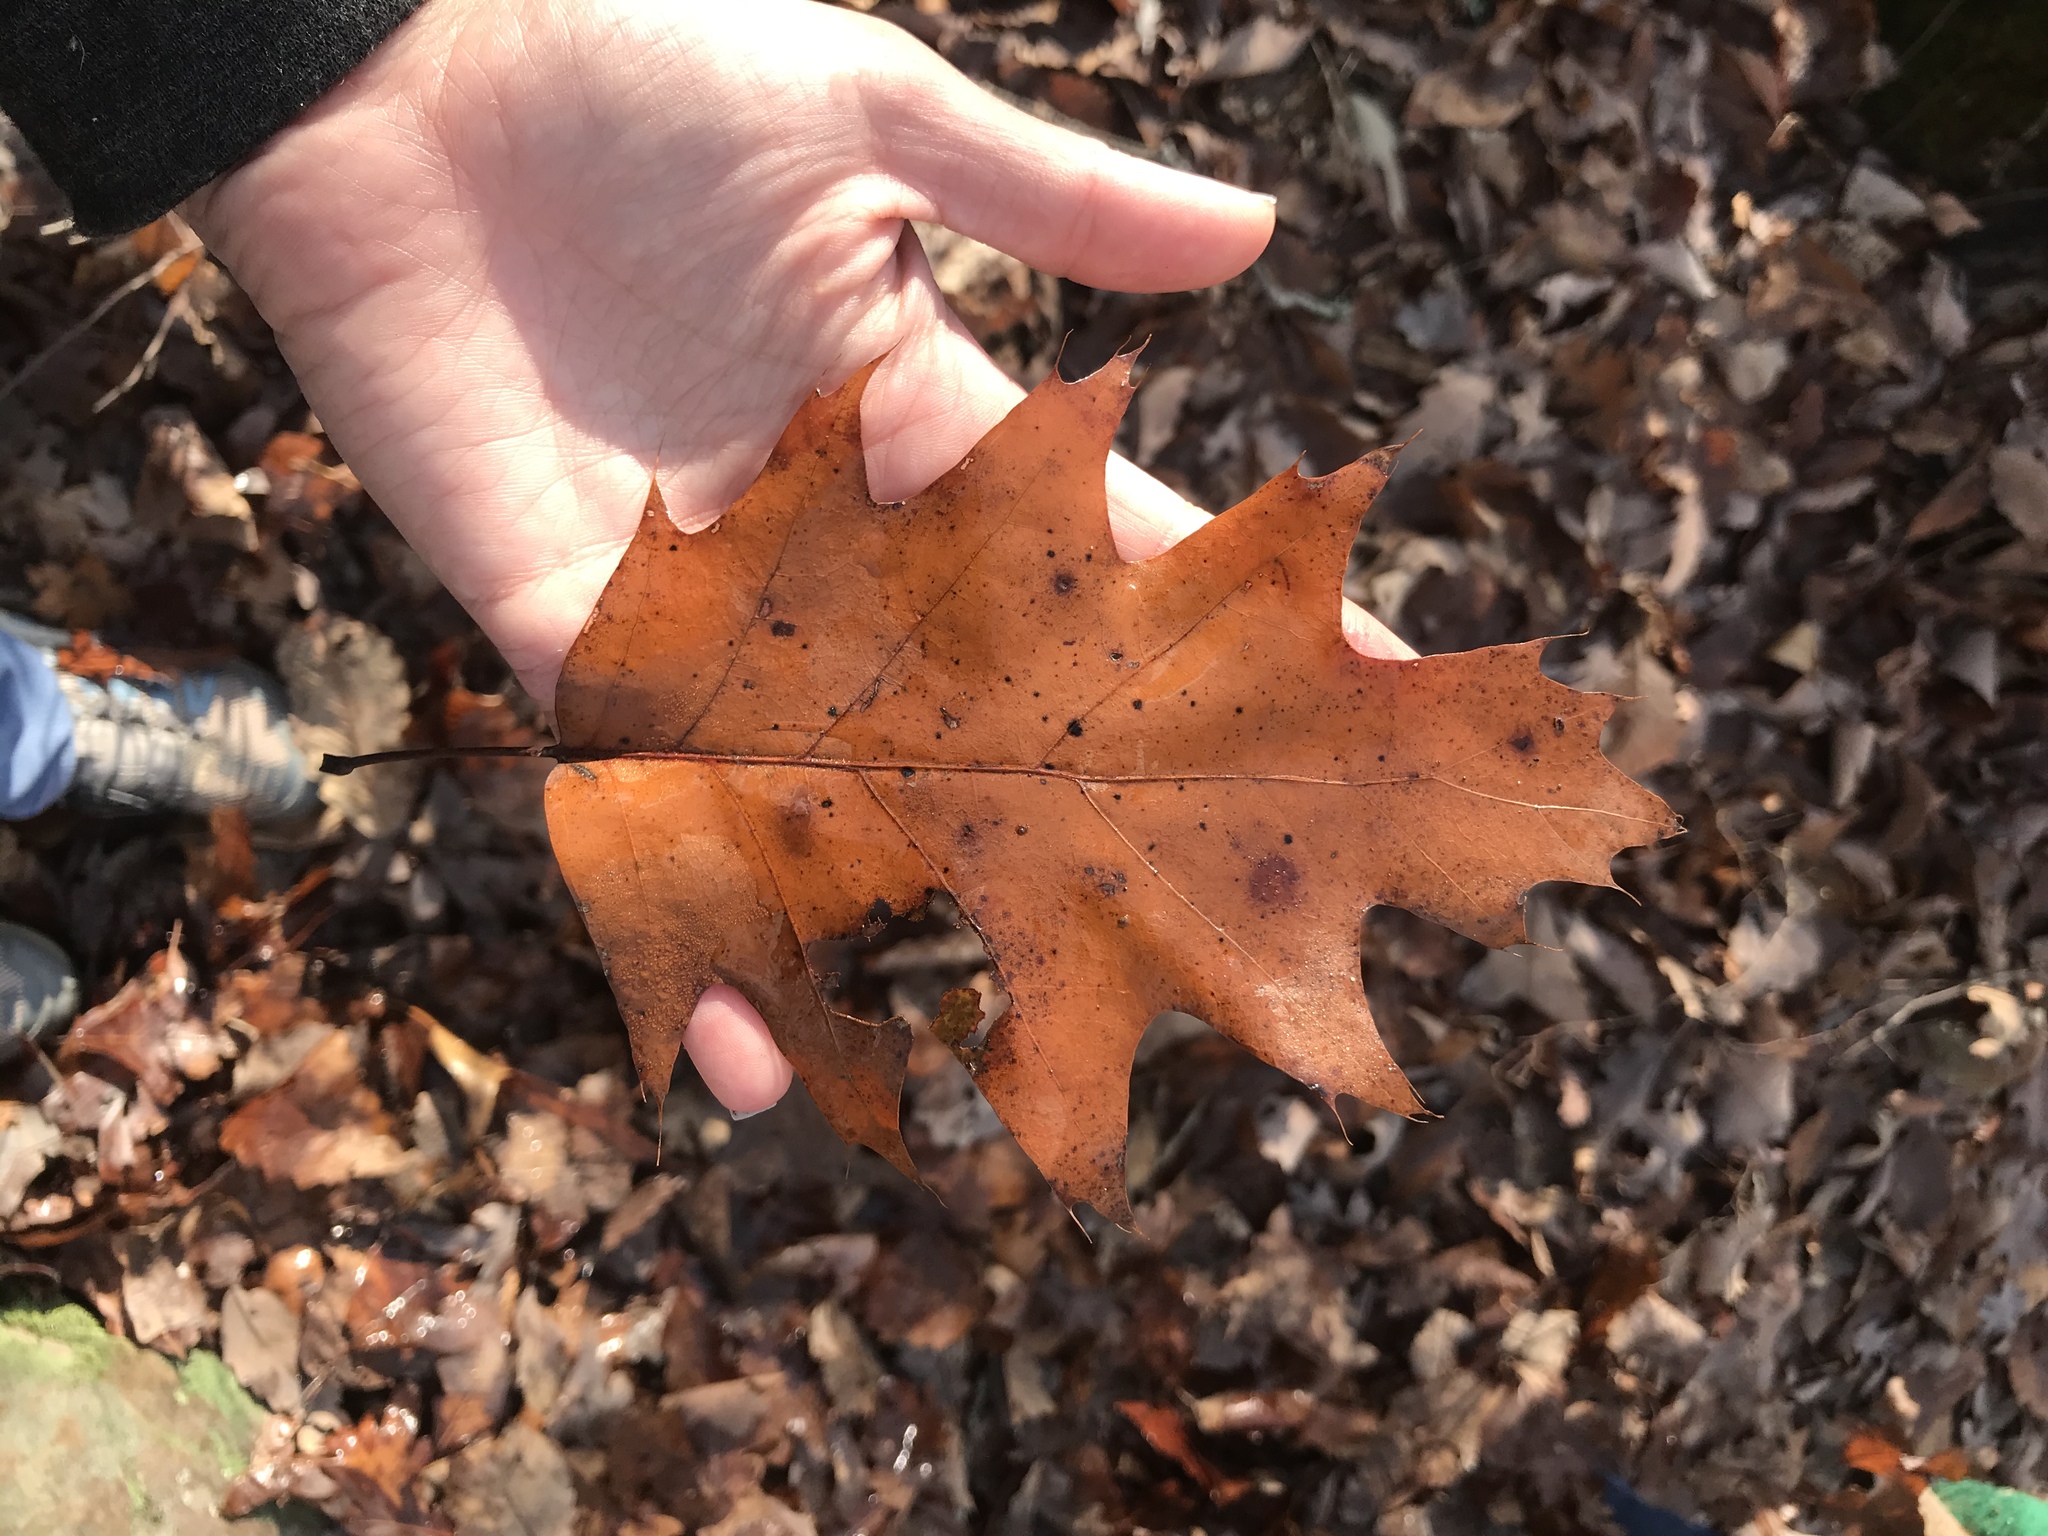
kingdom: Plantae
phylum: Tracheophyta
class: Magnoliopsida
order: Fagales
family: Fagaceae
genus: Quercus
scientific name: Quercus rubra
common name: Red oak
